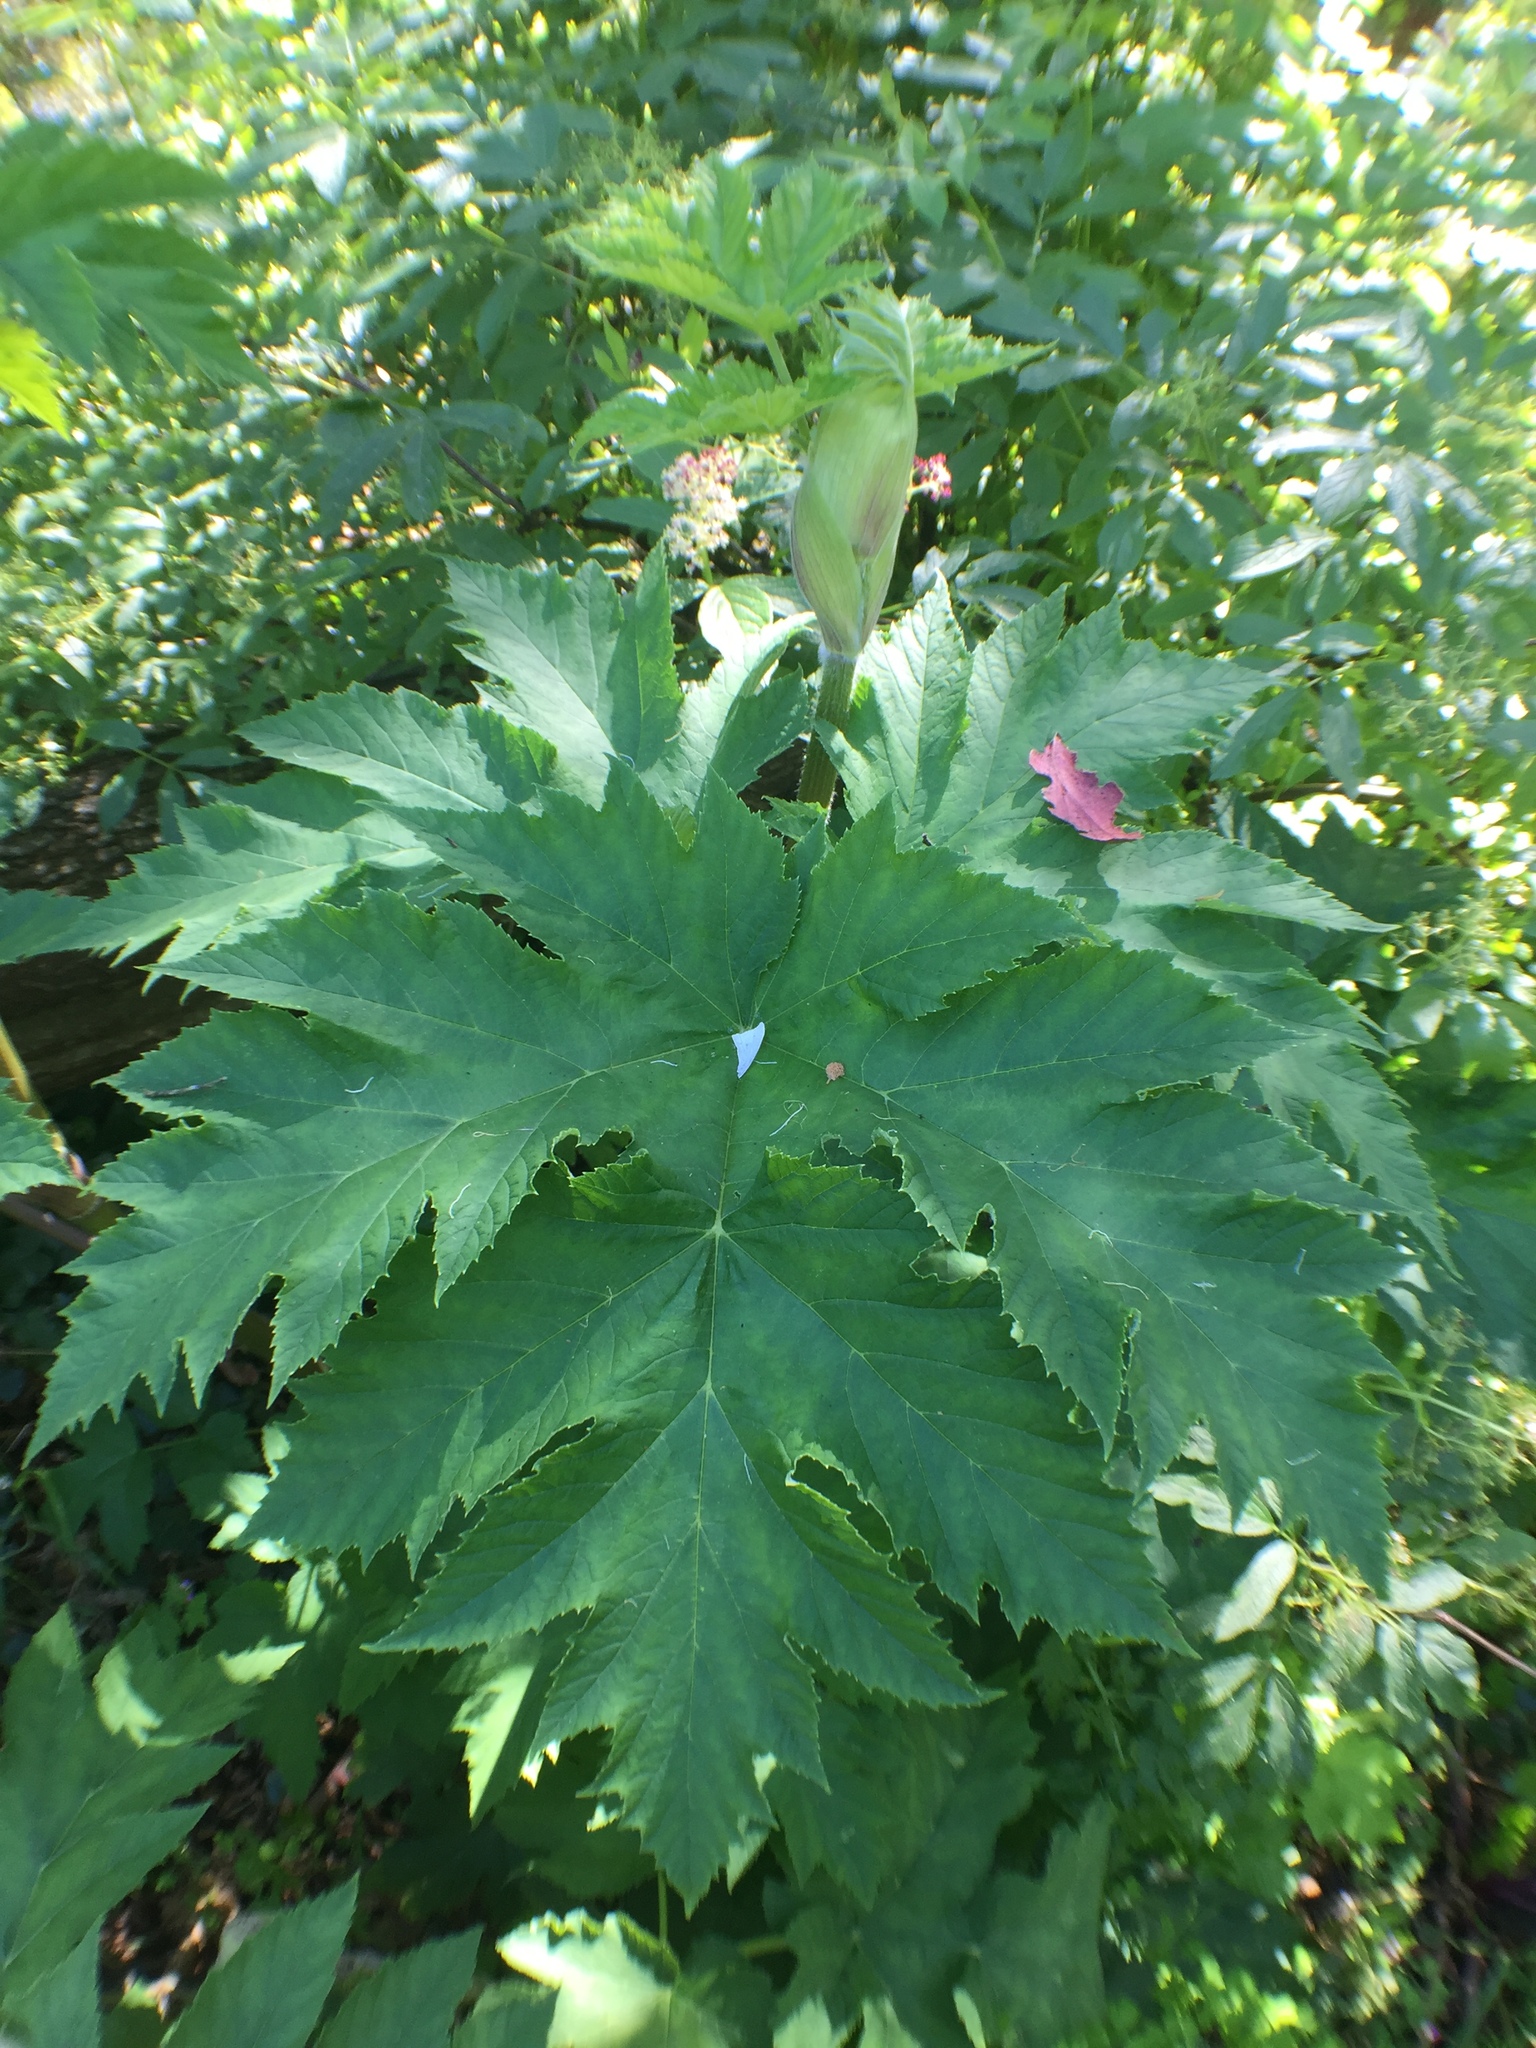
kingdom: Plantae
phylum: Tracheophyta
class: Magnoliopsida
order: Apiales
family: Apiaceae
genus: Heracleum
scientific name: Heracleum maximum
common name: American cow parsnip
